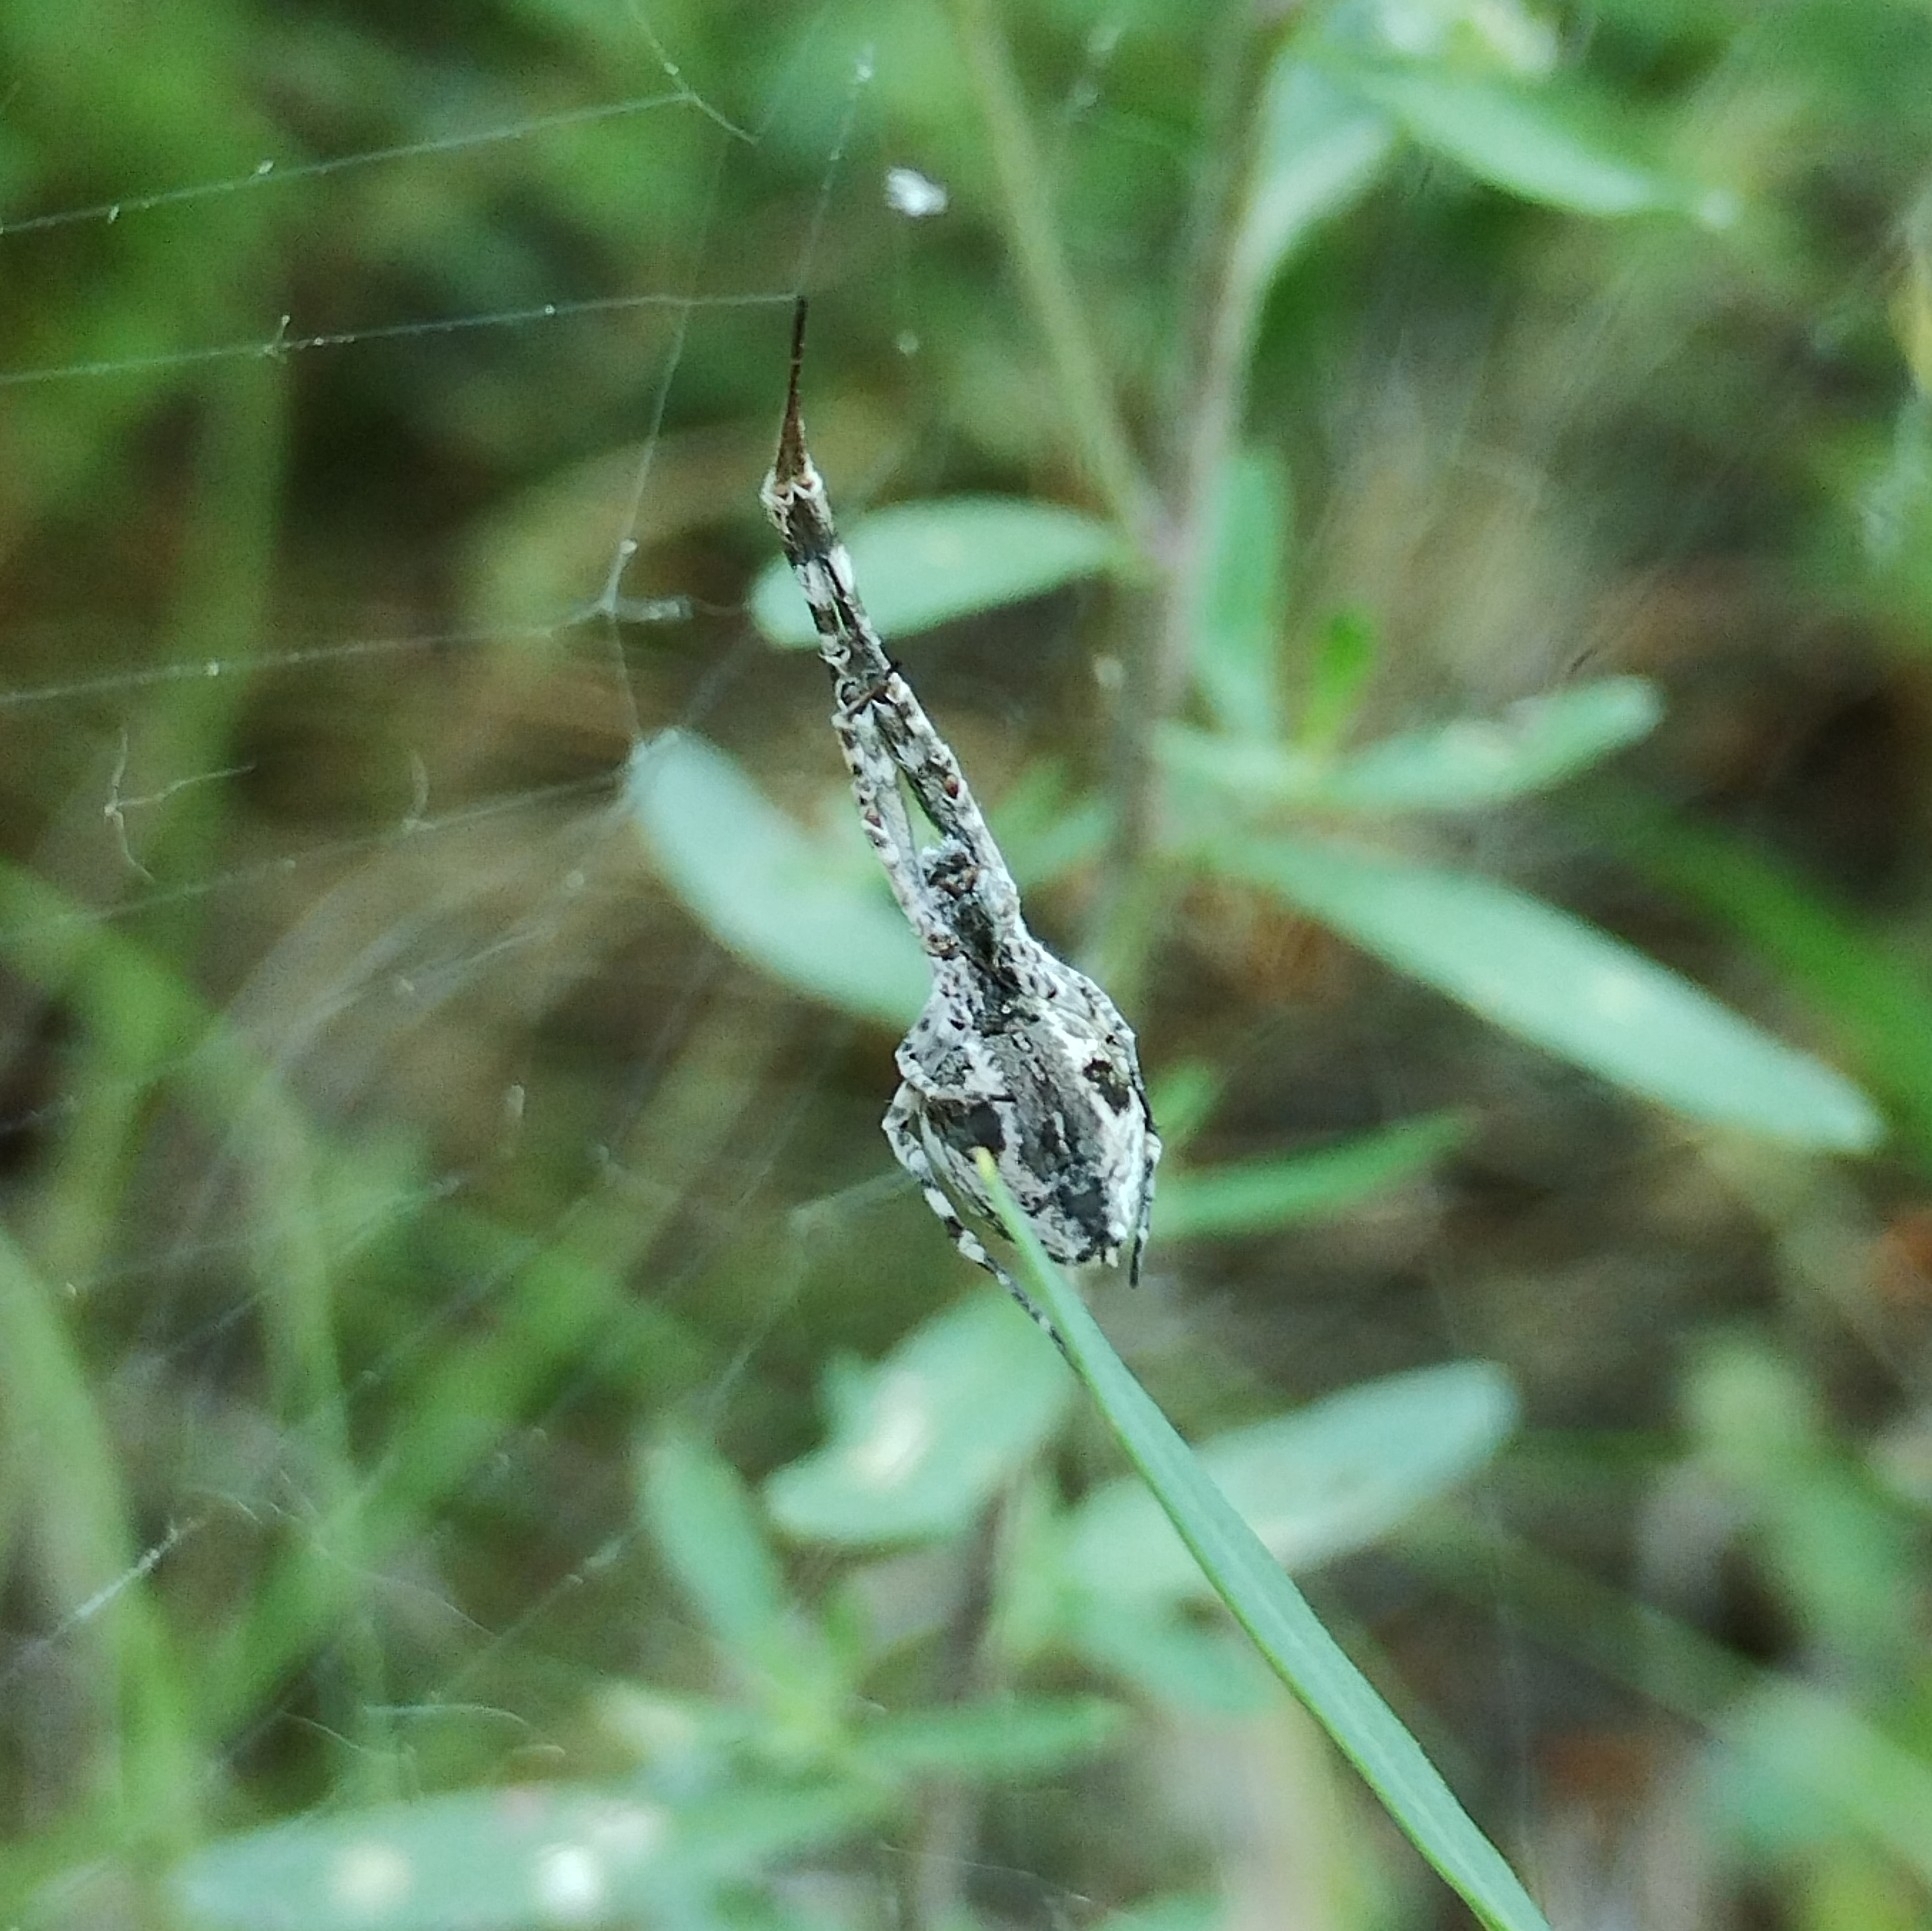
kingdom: Animalia
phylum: Arthropoda
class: Arachnida
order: Araneae
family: Uloboridae
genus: Uloborus
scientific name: Uloborus walckenaerius
